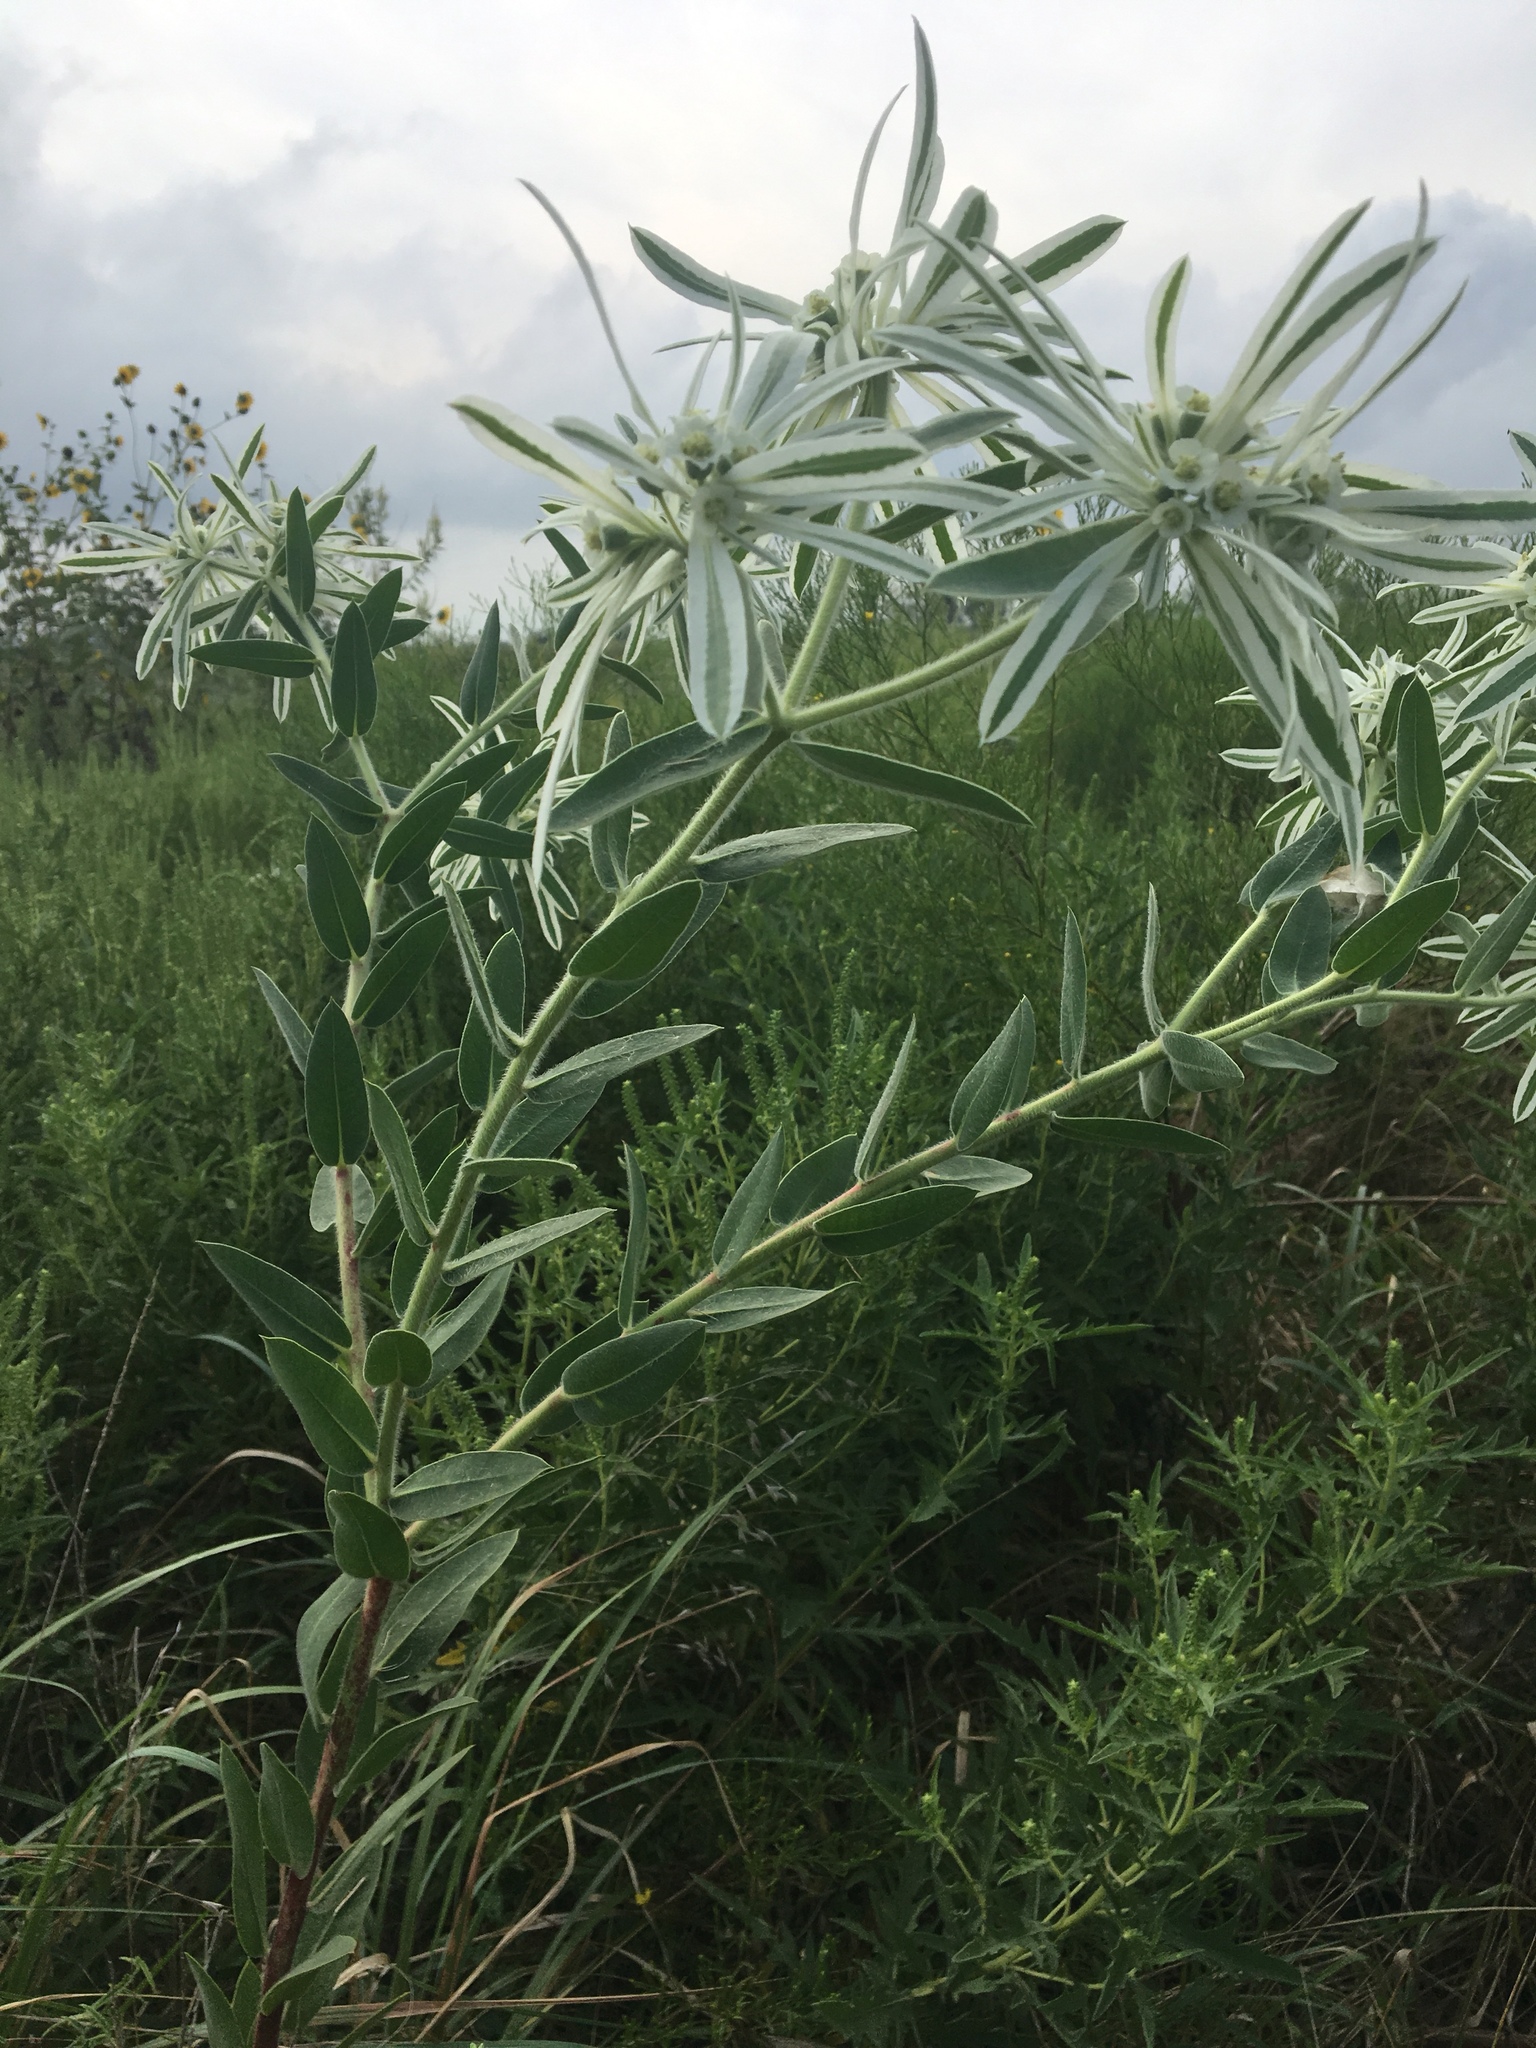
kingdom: Plantae
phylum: Tracheophyta
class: Magnoliopsida
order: Malpighiales
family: Euphorbiaceae
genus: Euphorbia
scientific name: Euphorbia bicolor
